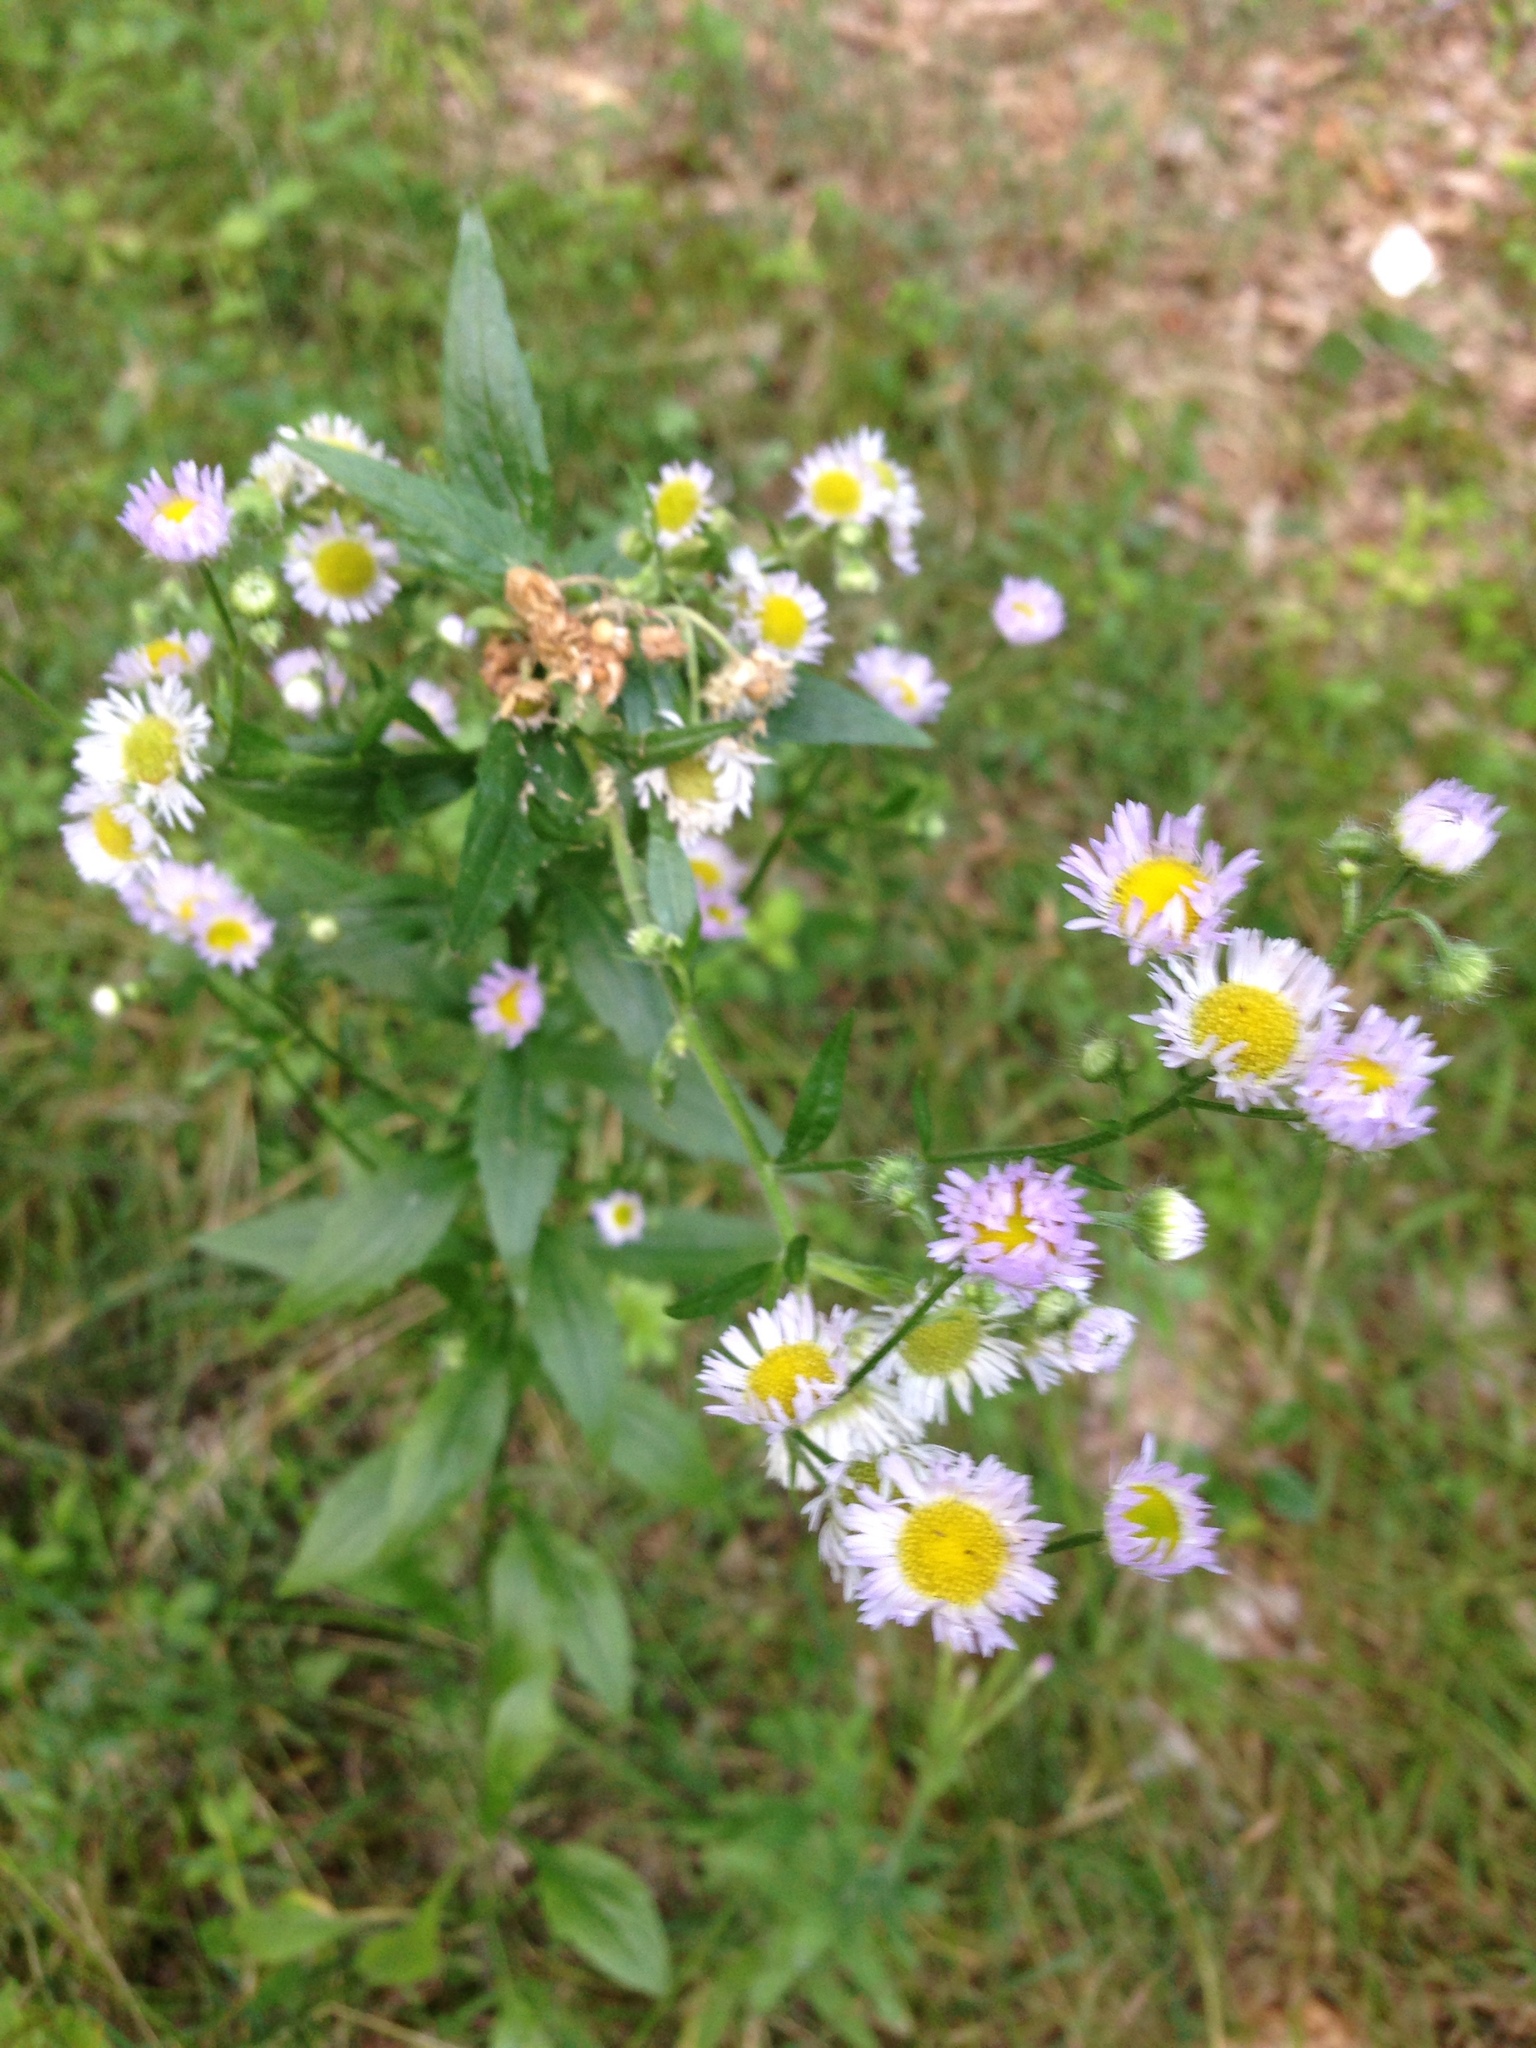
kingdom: Plantae
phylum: Tracheophyta
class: Magnoliopsida
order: Asterales
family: Asteraceae
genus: Erigeron
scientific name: Erigeron annuus
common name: Tall fleabane
